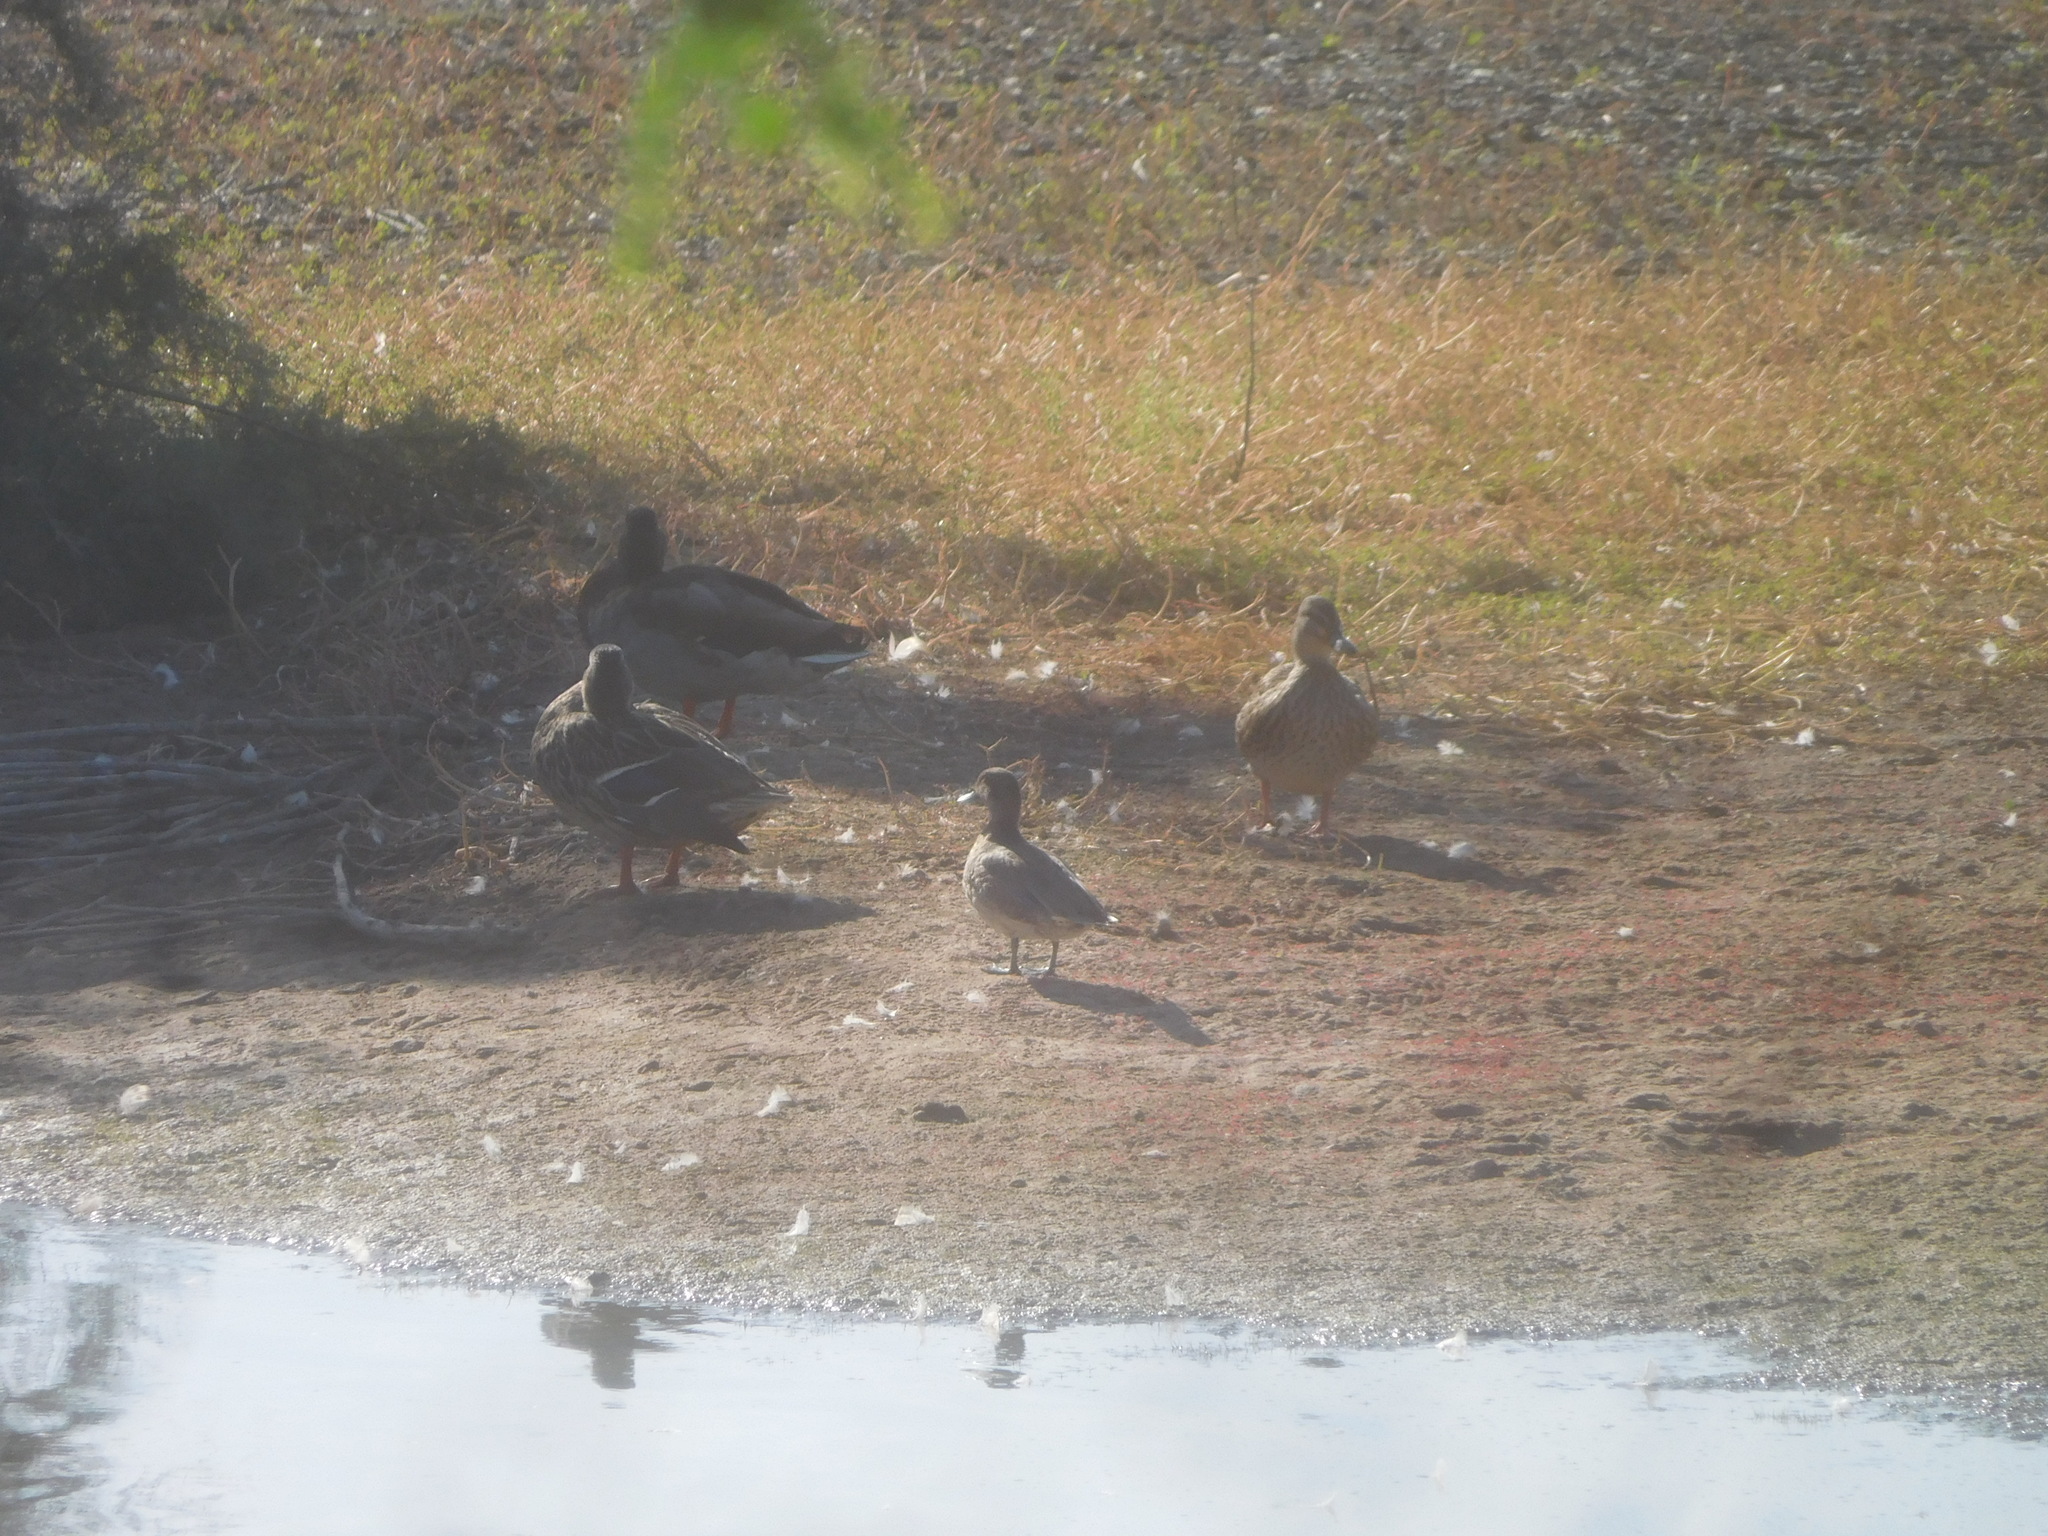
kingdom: Animalia
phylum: Chordata
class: Aves
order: Anseriformes
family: Anatidae
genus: Anas
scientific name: Anas crecca
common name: Eurasian teal
